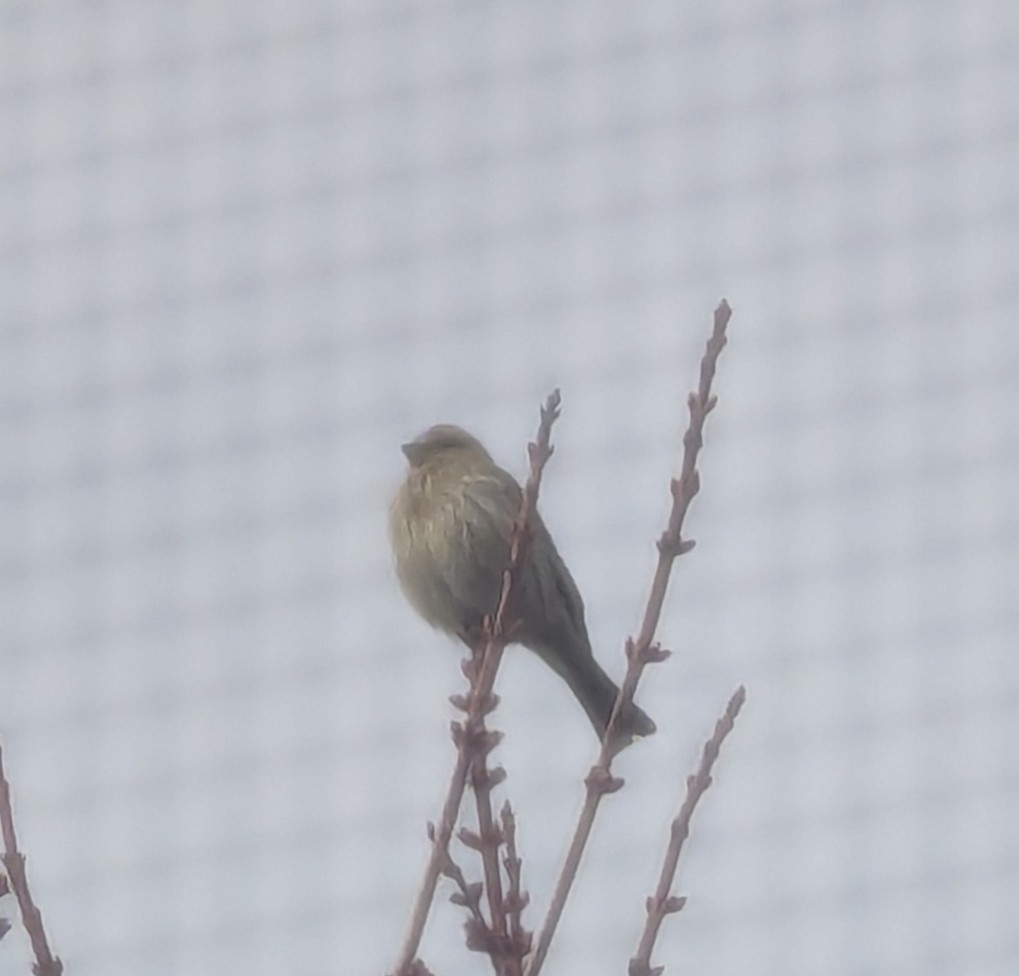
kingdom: Animalia
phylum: Chordata
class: Aves
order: Passeriformes
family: Fringillidae
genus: Haemorhous
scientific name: Haemorhous mexicanus
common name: House finch
